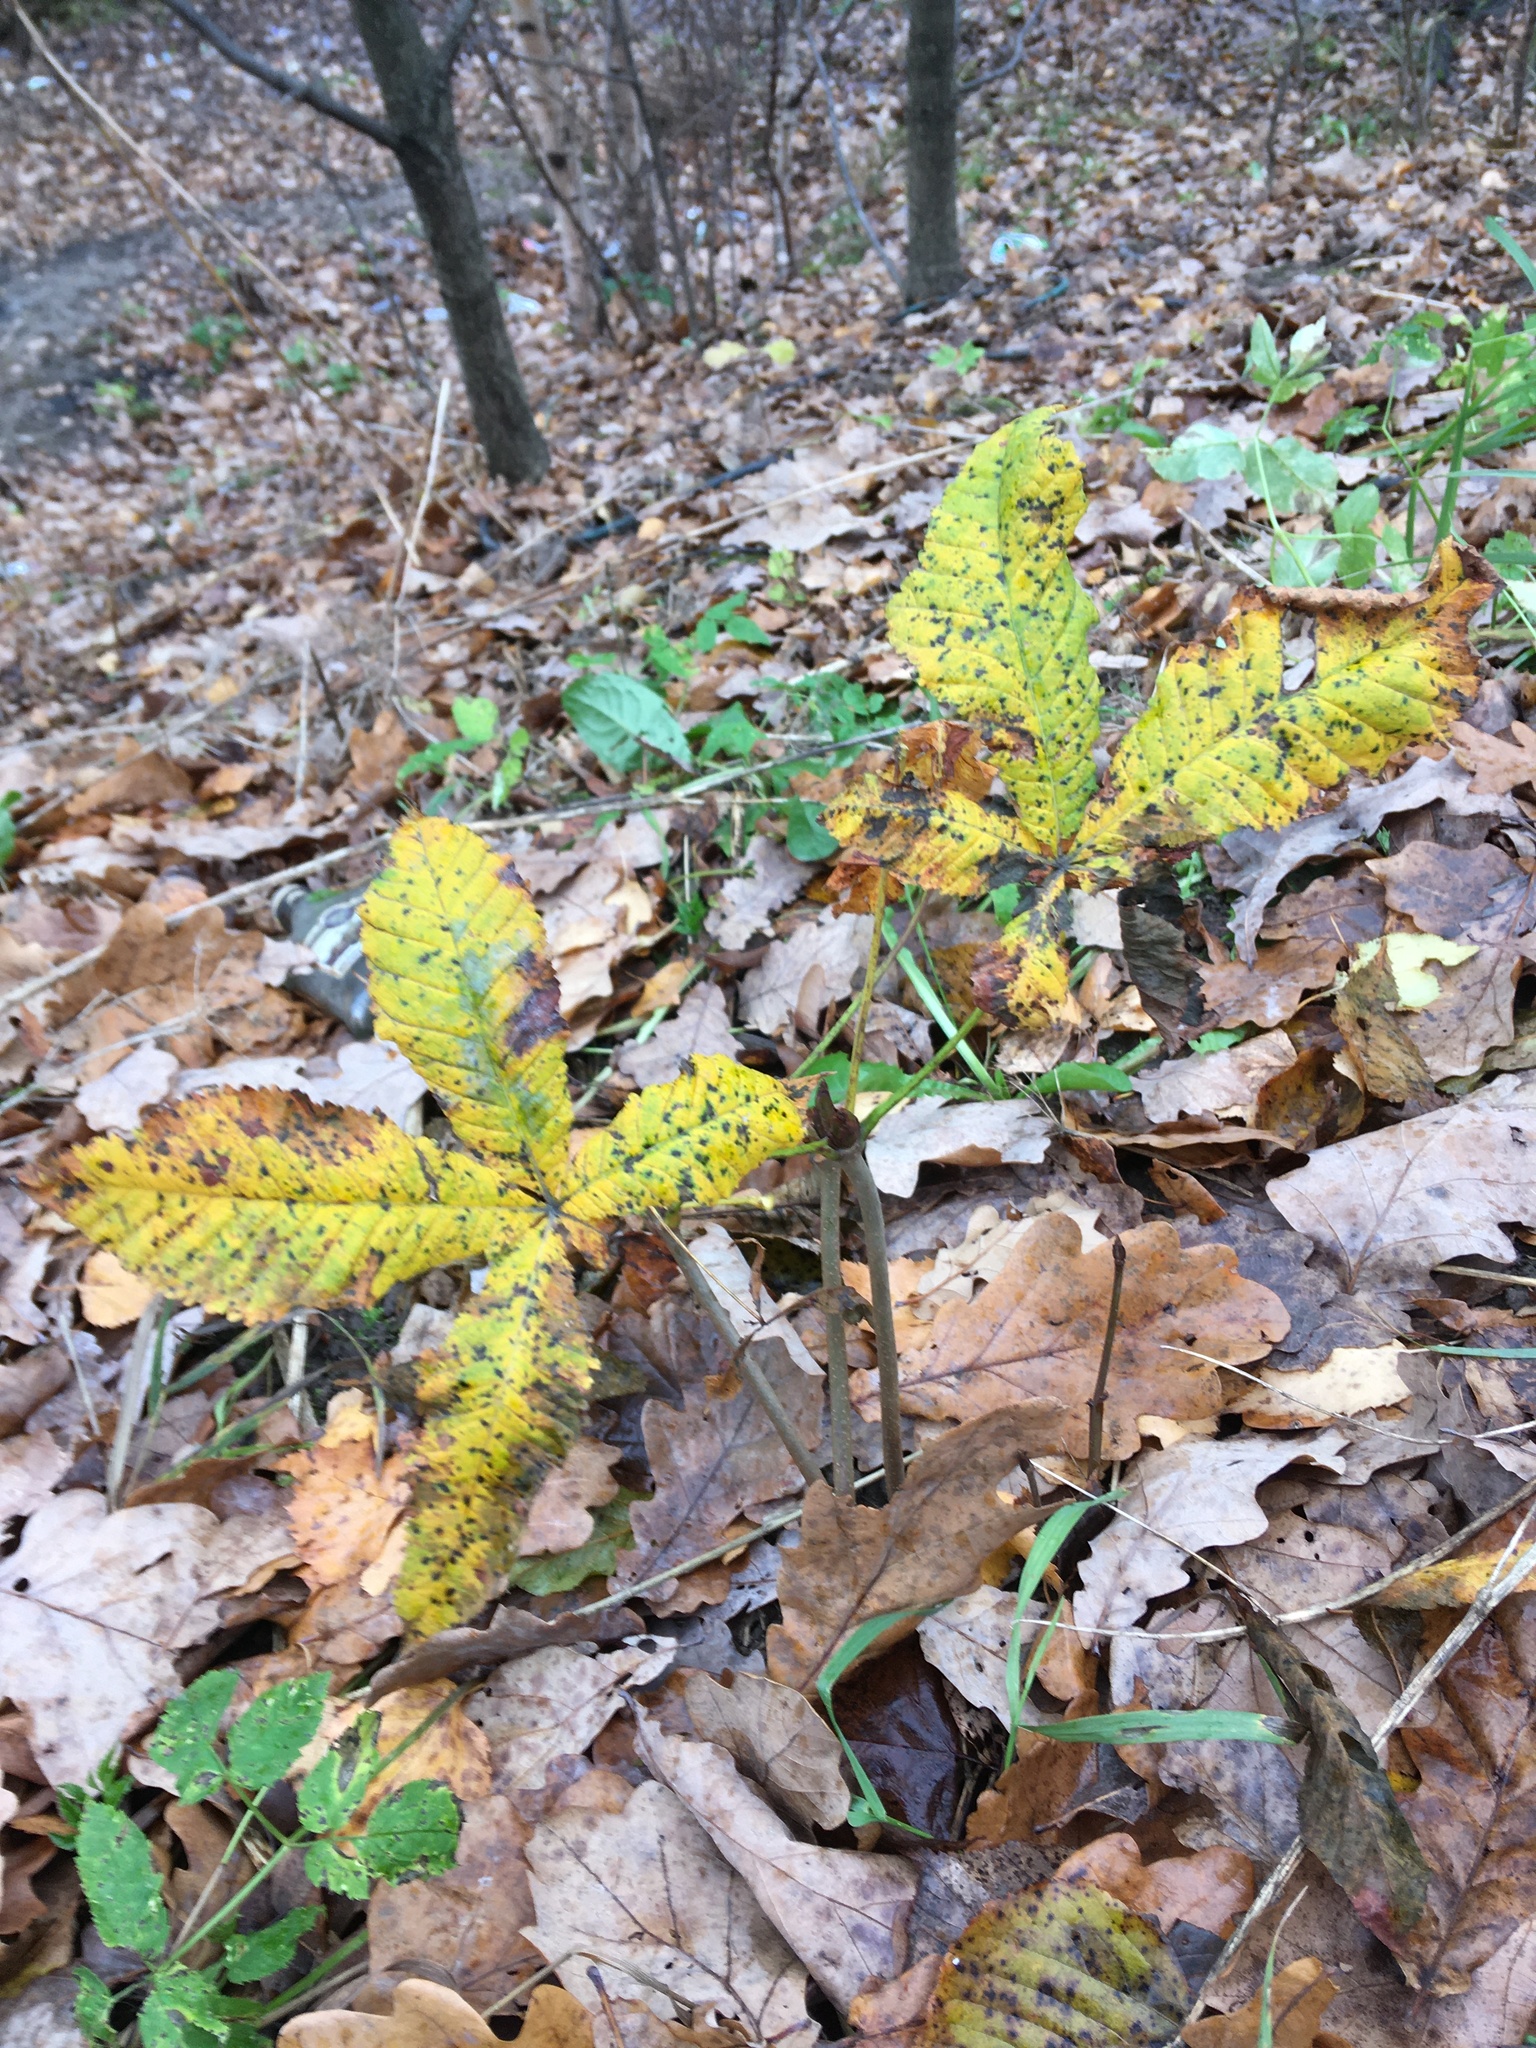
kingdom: Plantae
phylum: Tracheophyta
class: Magnoliopsida
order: Sapindales
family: Sapindaceae
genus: Aesculus
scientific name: Aesculus hippocastanum
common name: Horse-chestnut
